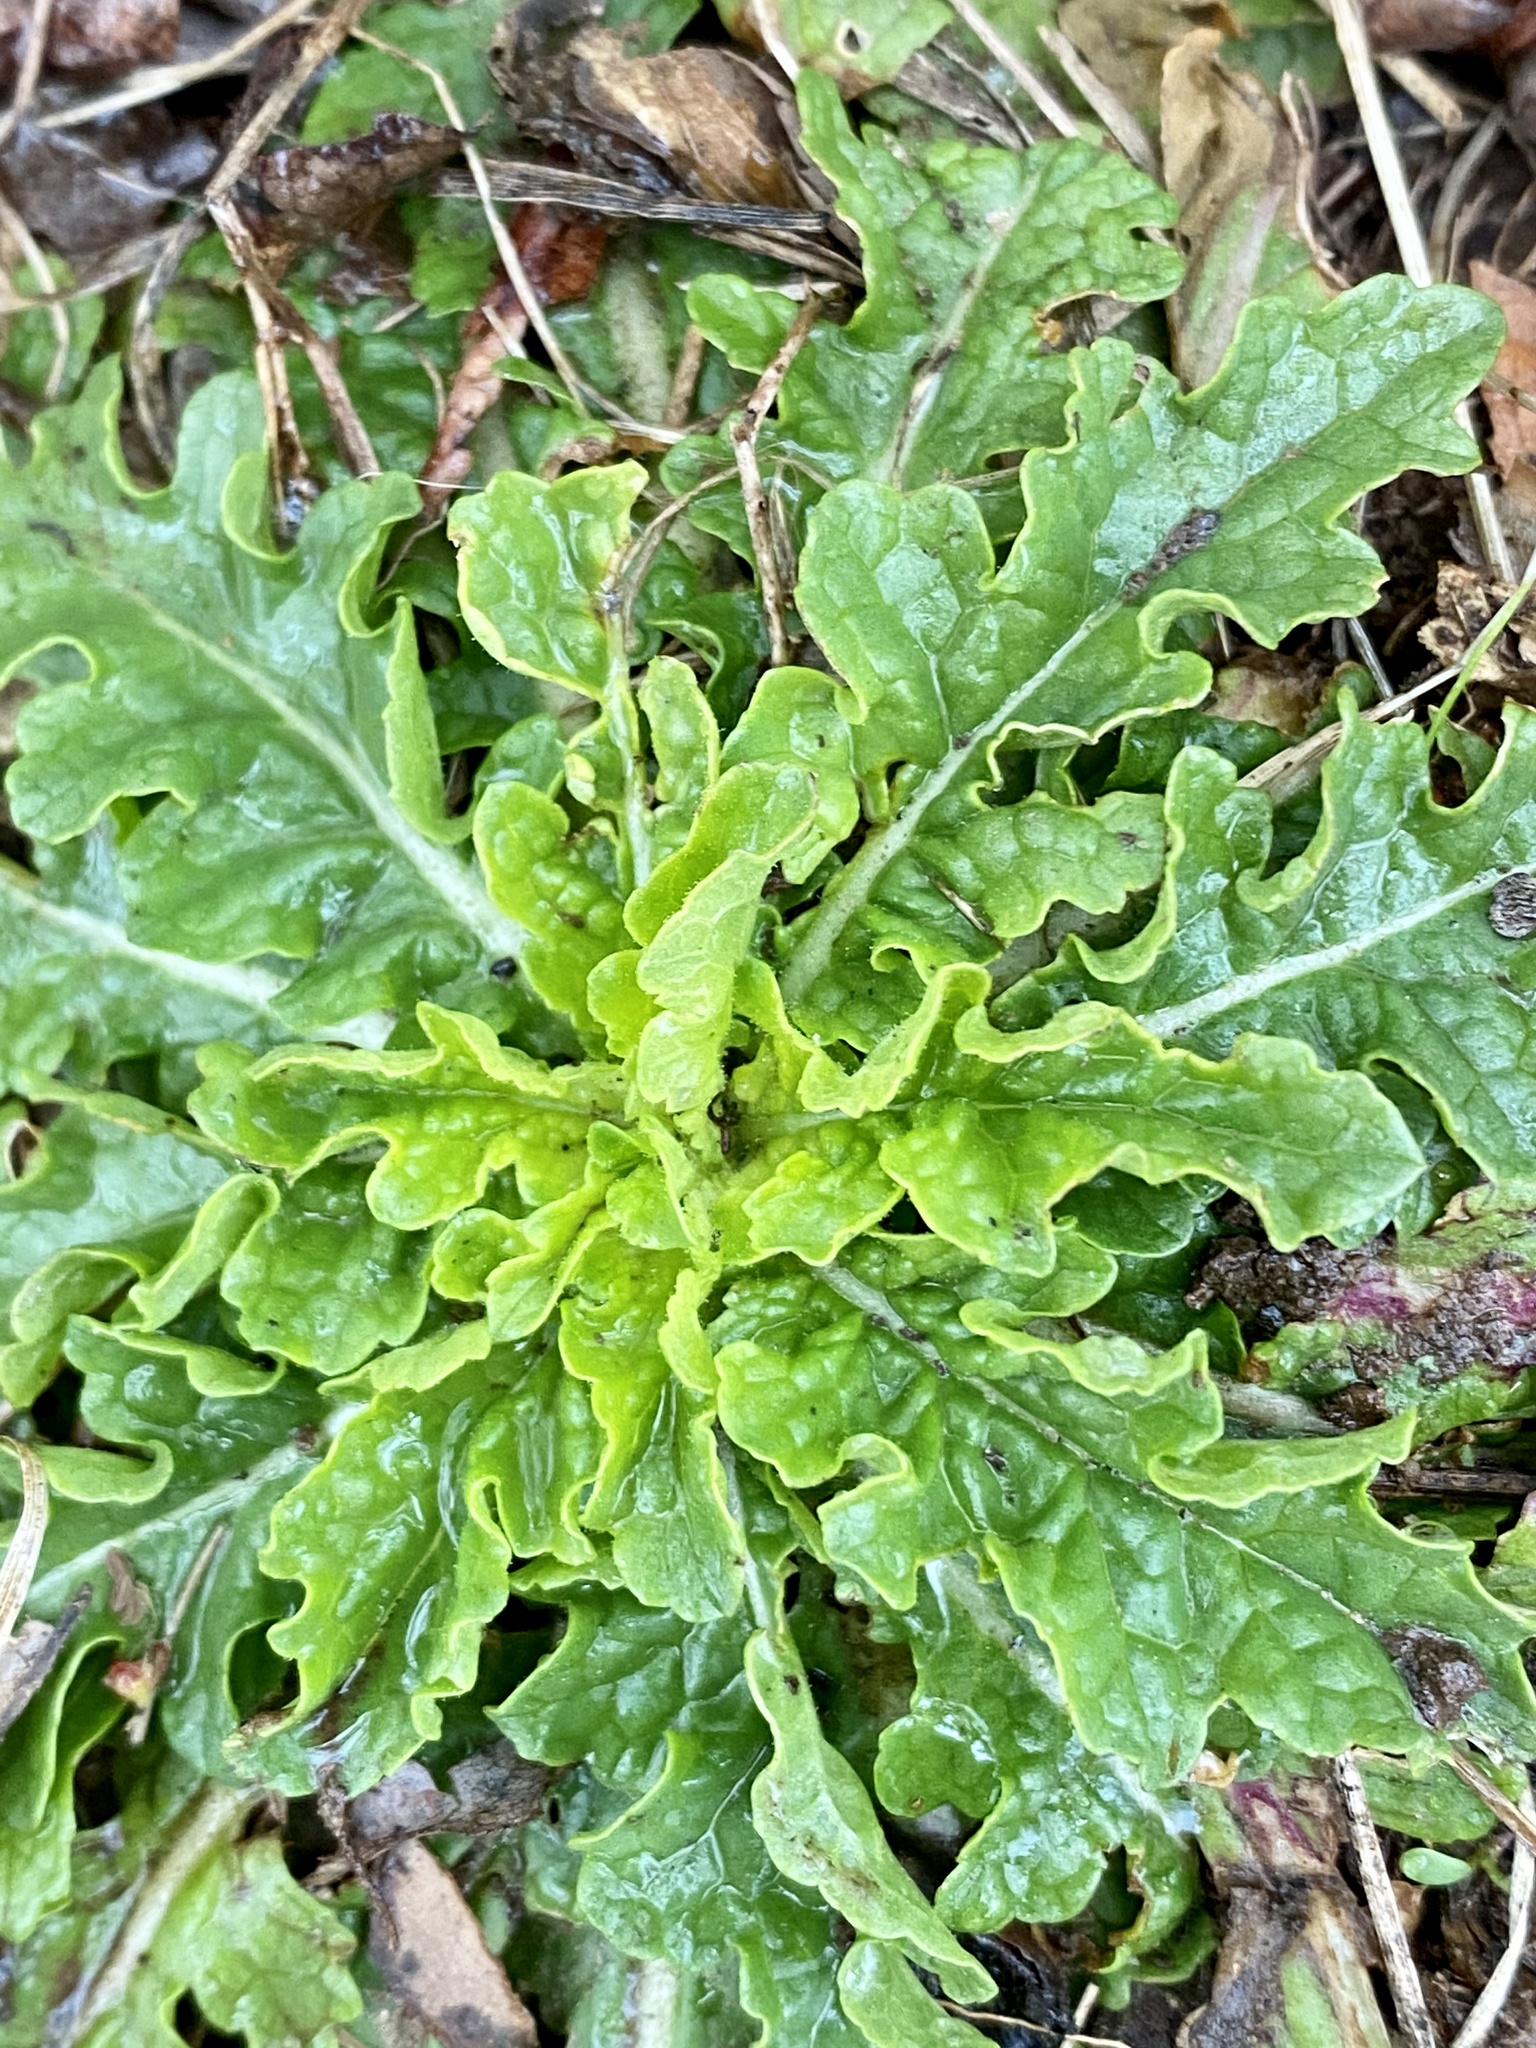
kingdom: Plantae
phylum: Tracheophyta
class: Magnoliopsida
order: Lamiales
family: Scrophulariaceae
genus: Verbascum
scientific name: Verbascum blattaria
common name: Moth mullein
